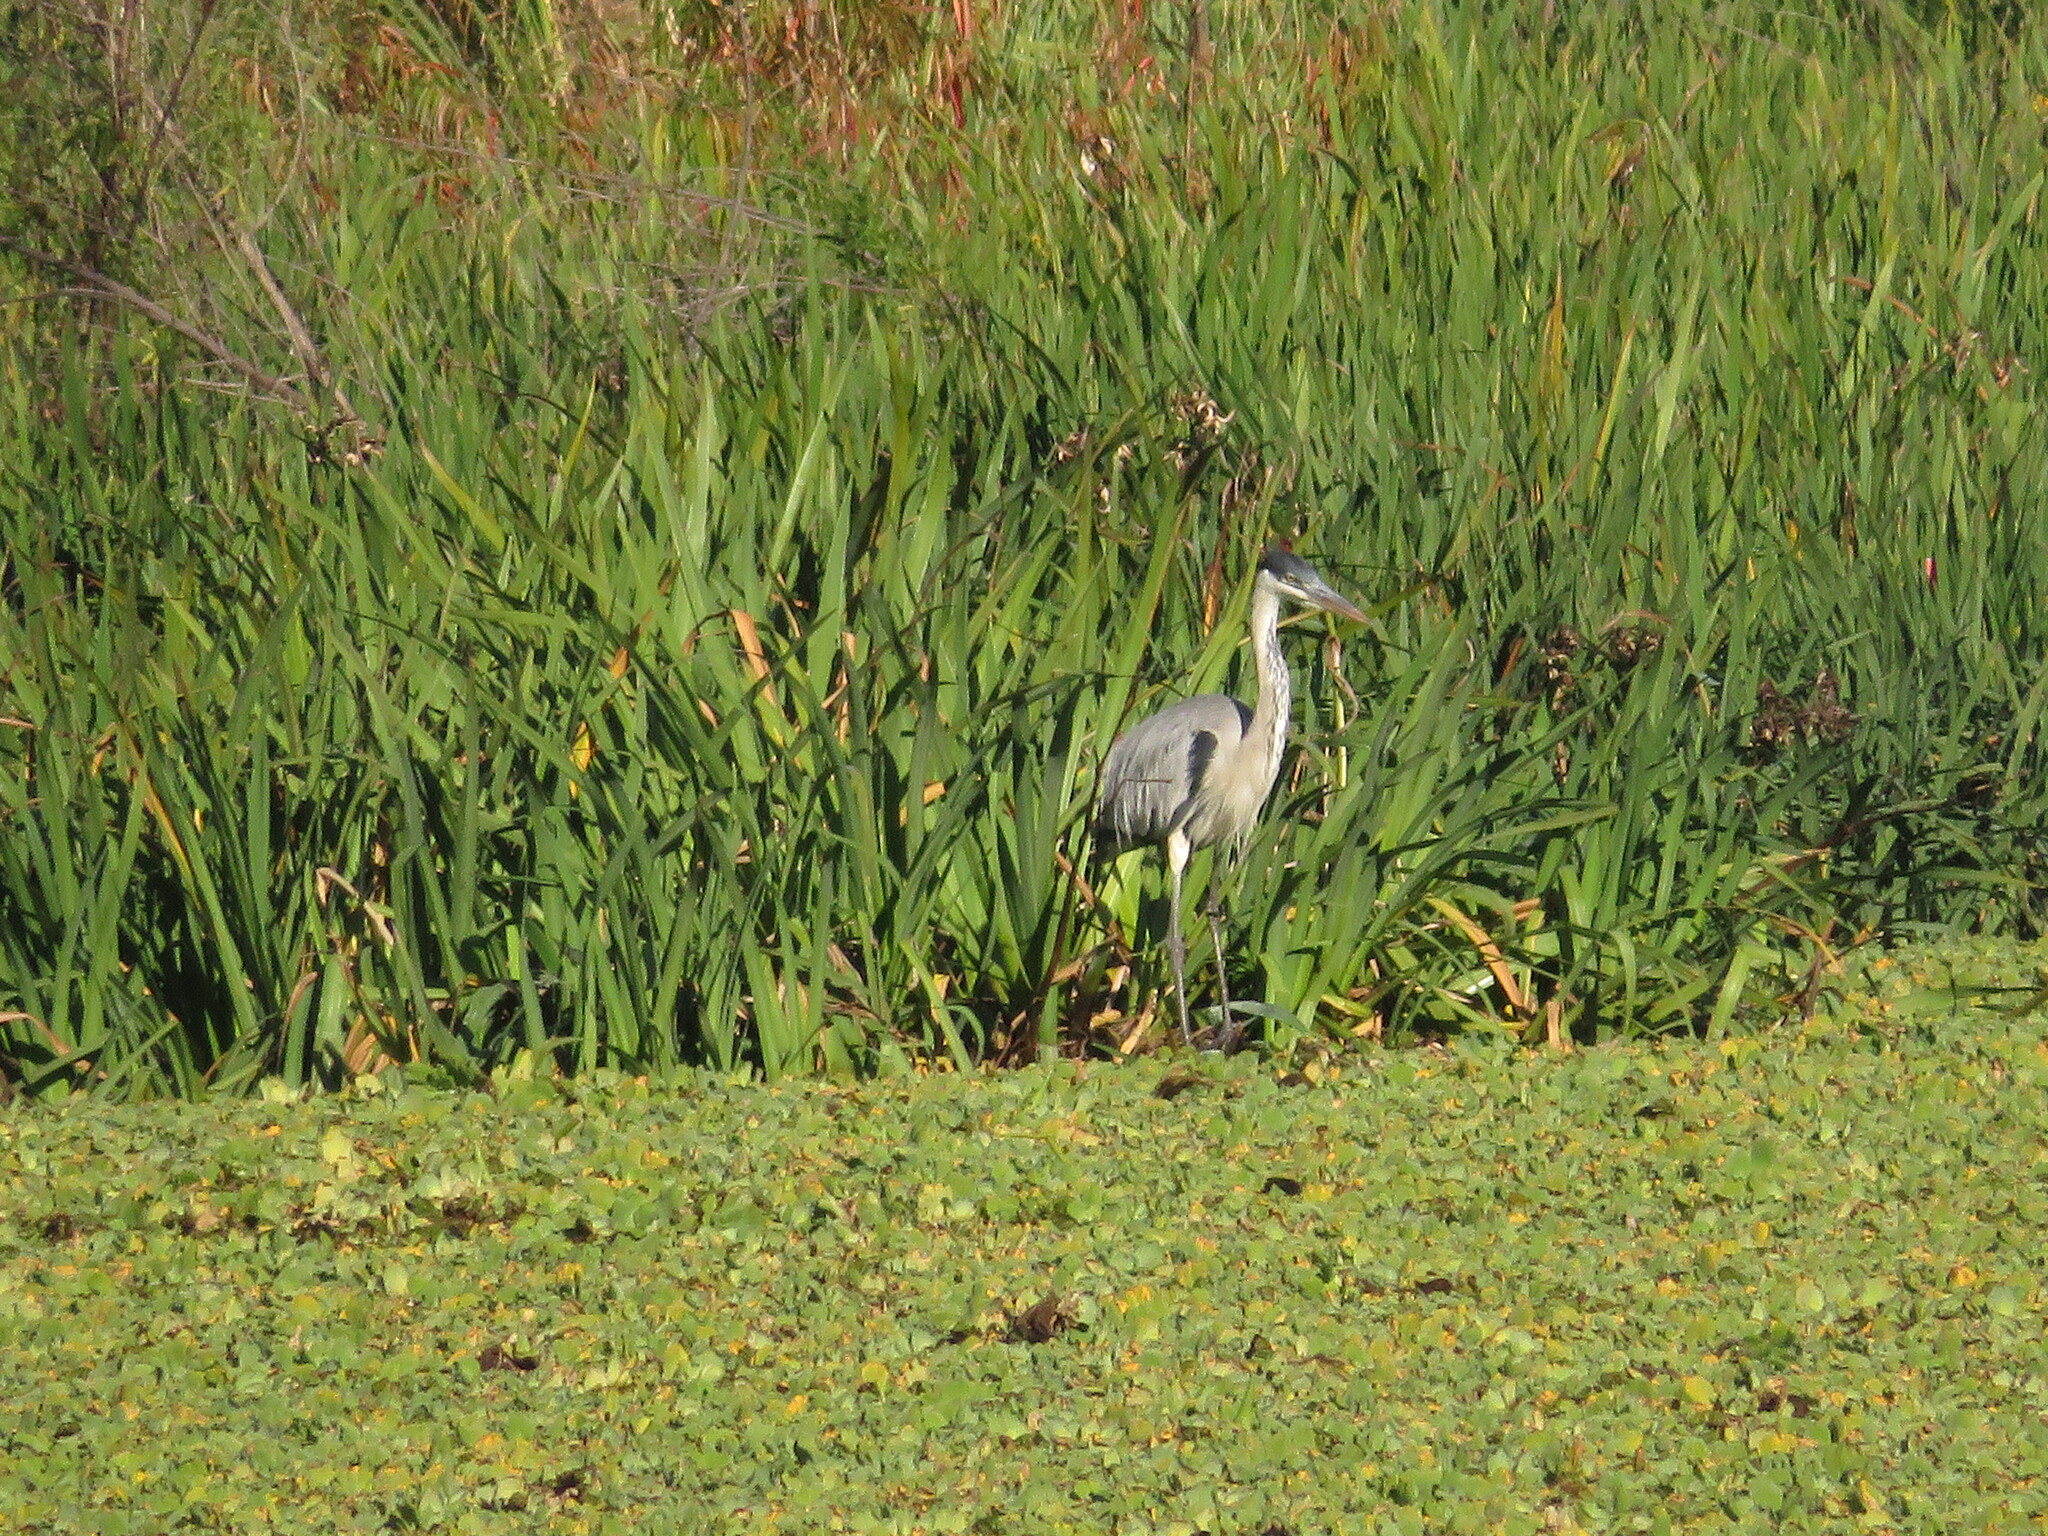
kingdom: Animalia
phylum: Chordata
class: Aves
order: Pelecaniformes
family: Ardeidae
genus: Ardea
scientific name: Ardea cocoi
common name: Cocoi heron
